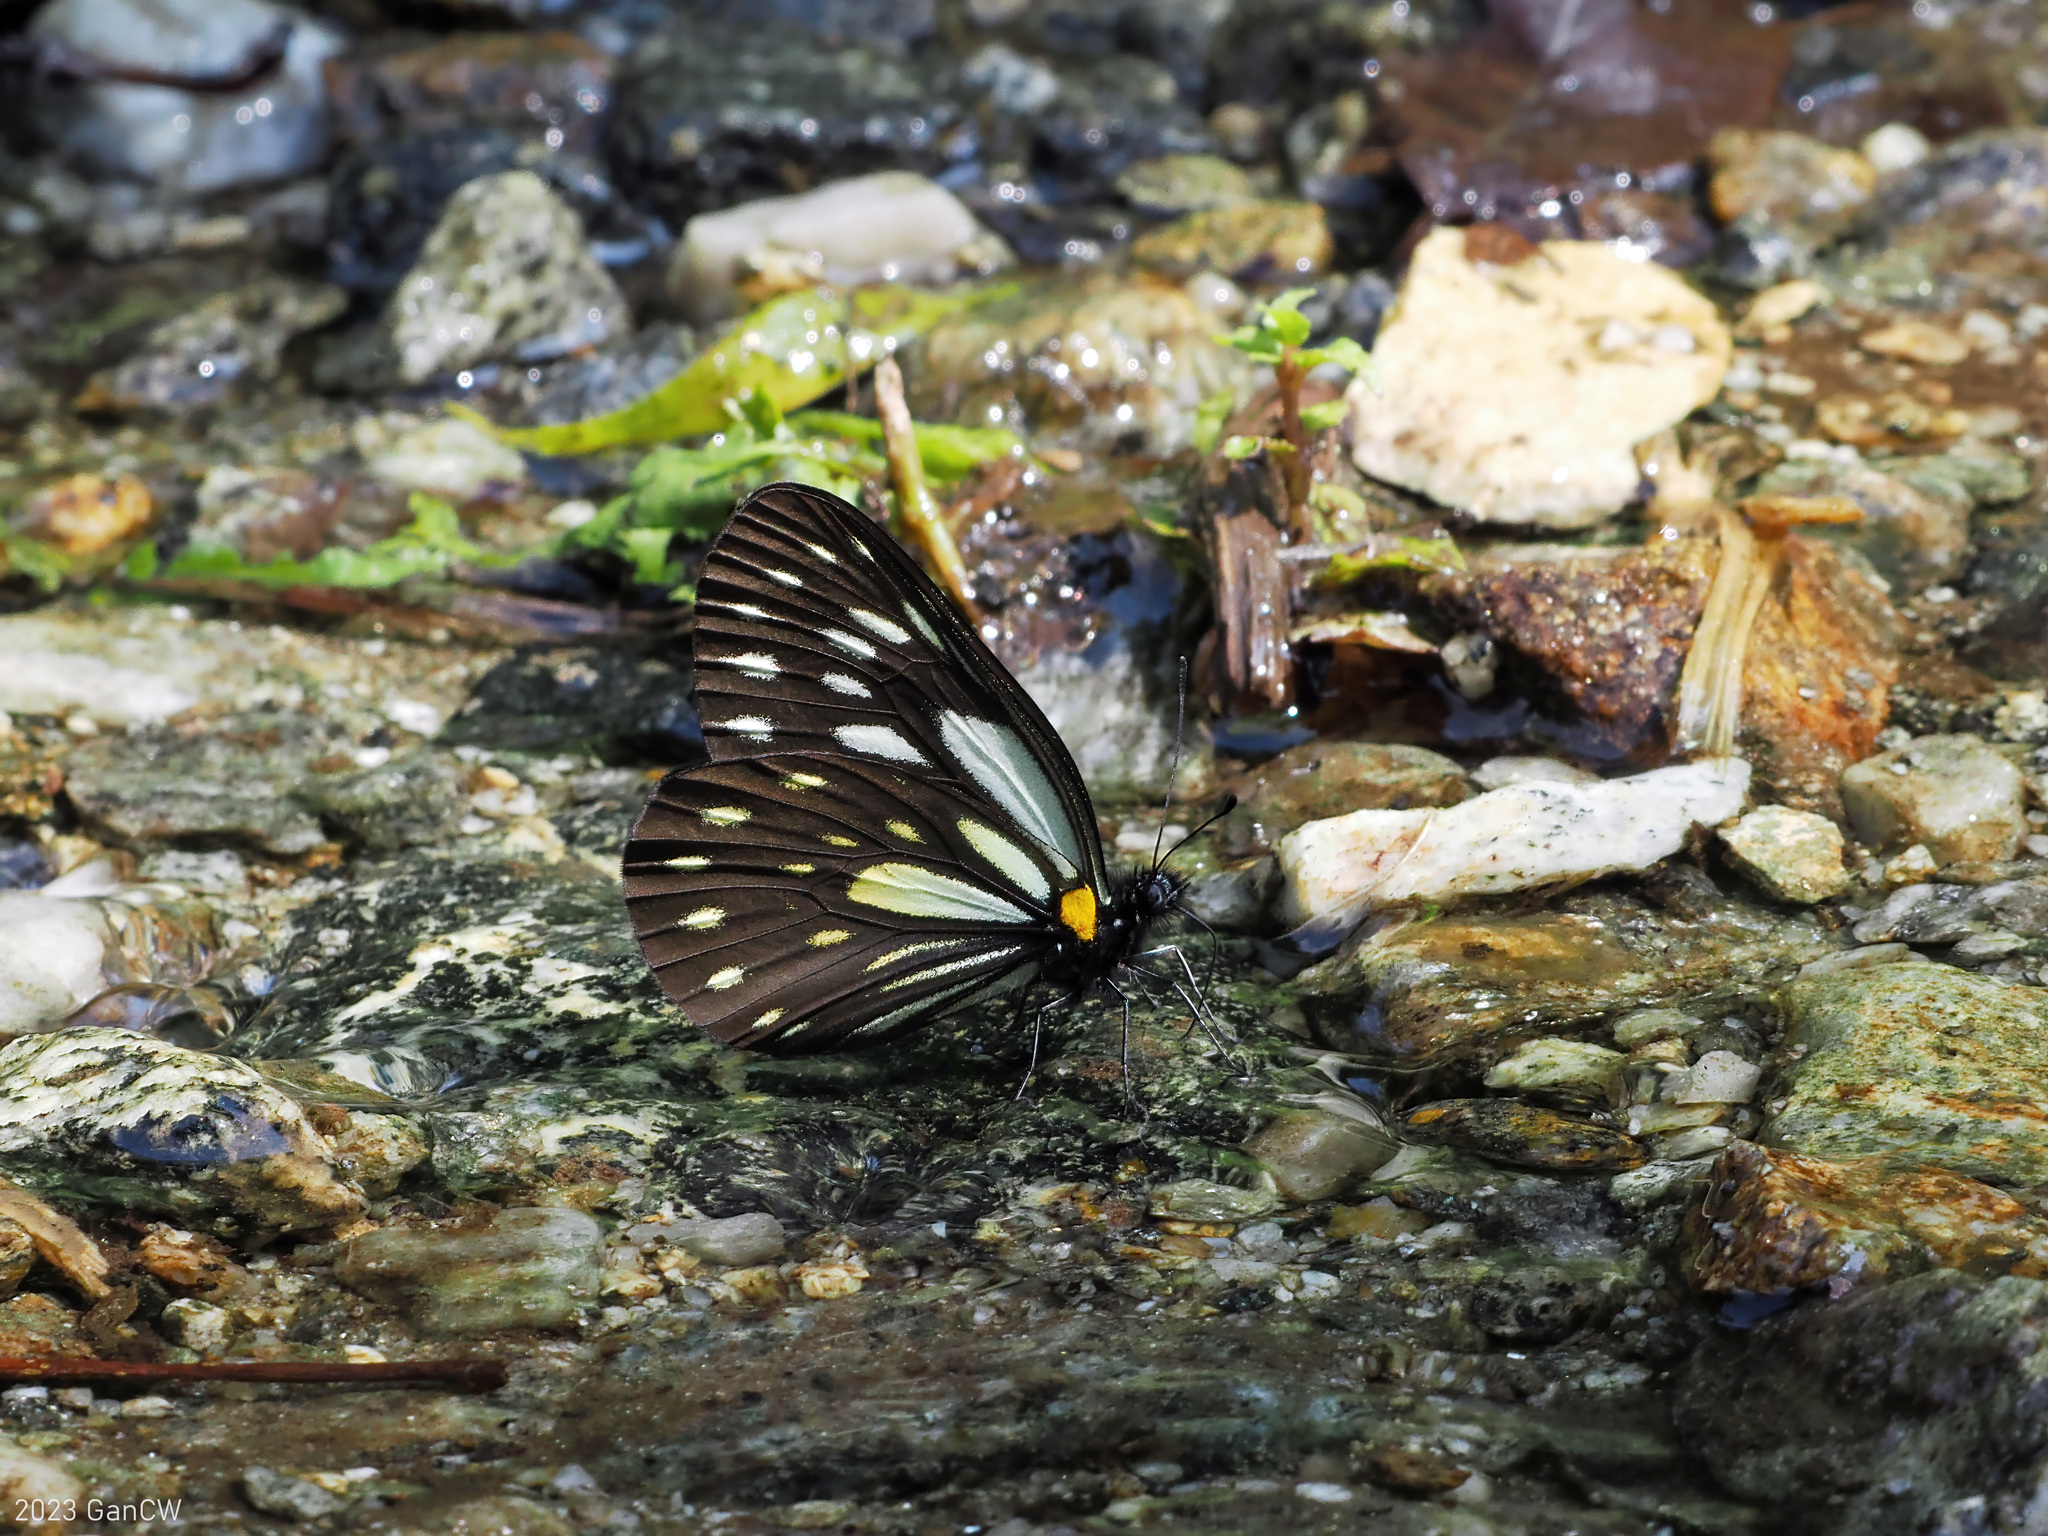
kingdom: Animalia
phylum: Arthropoda
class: Insecta
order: Lepidoptera
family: Pieridae
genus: Aporia
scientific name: Aporia agathon
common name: Great blackvein
